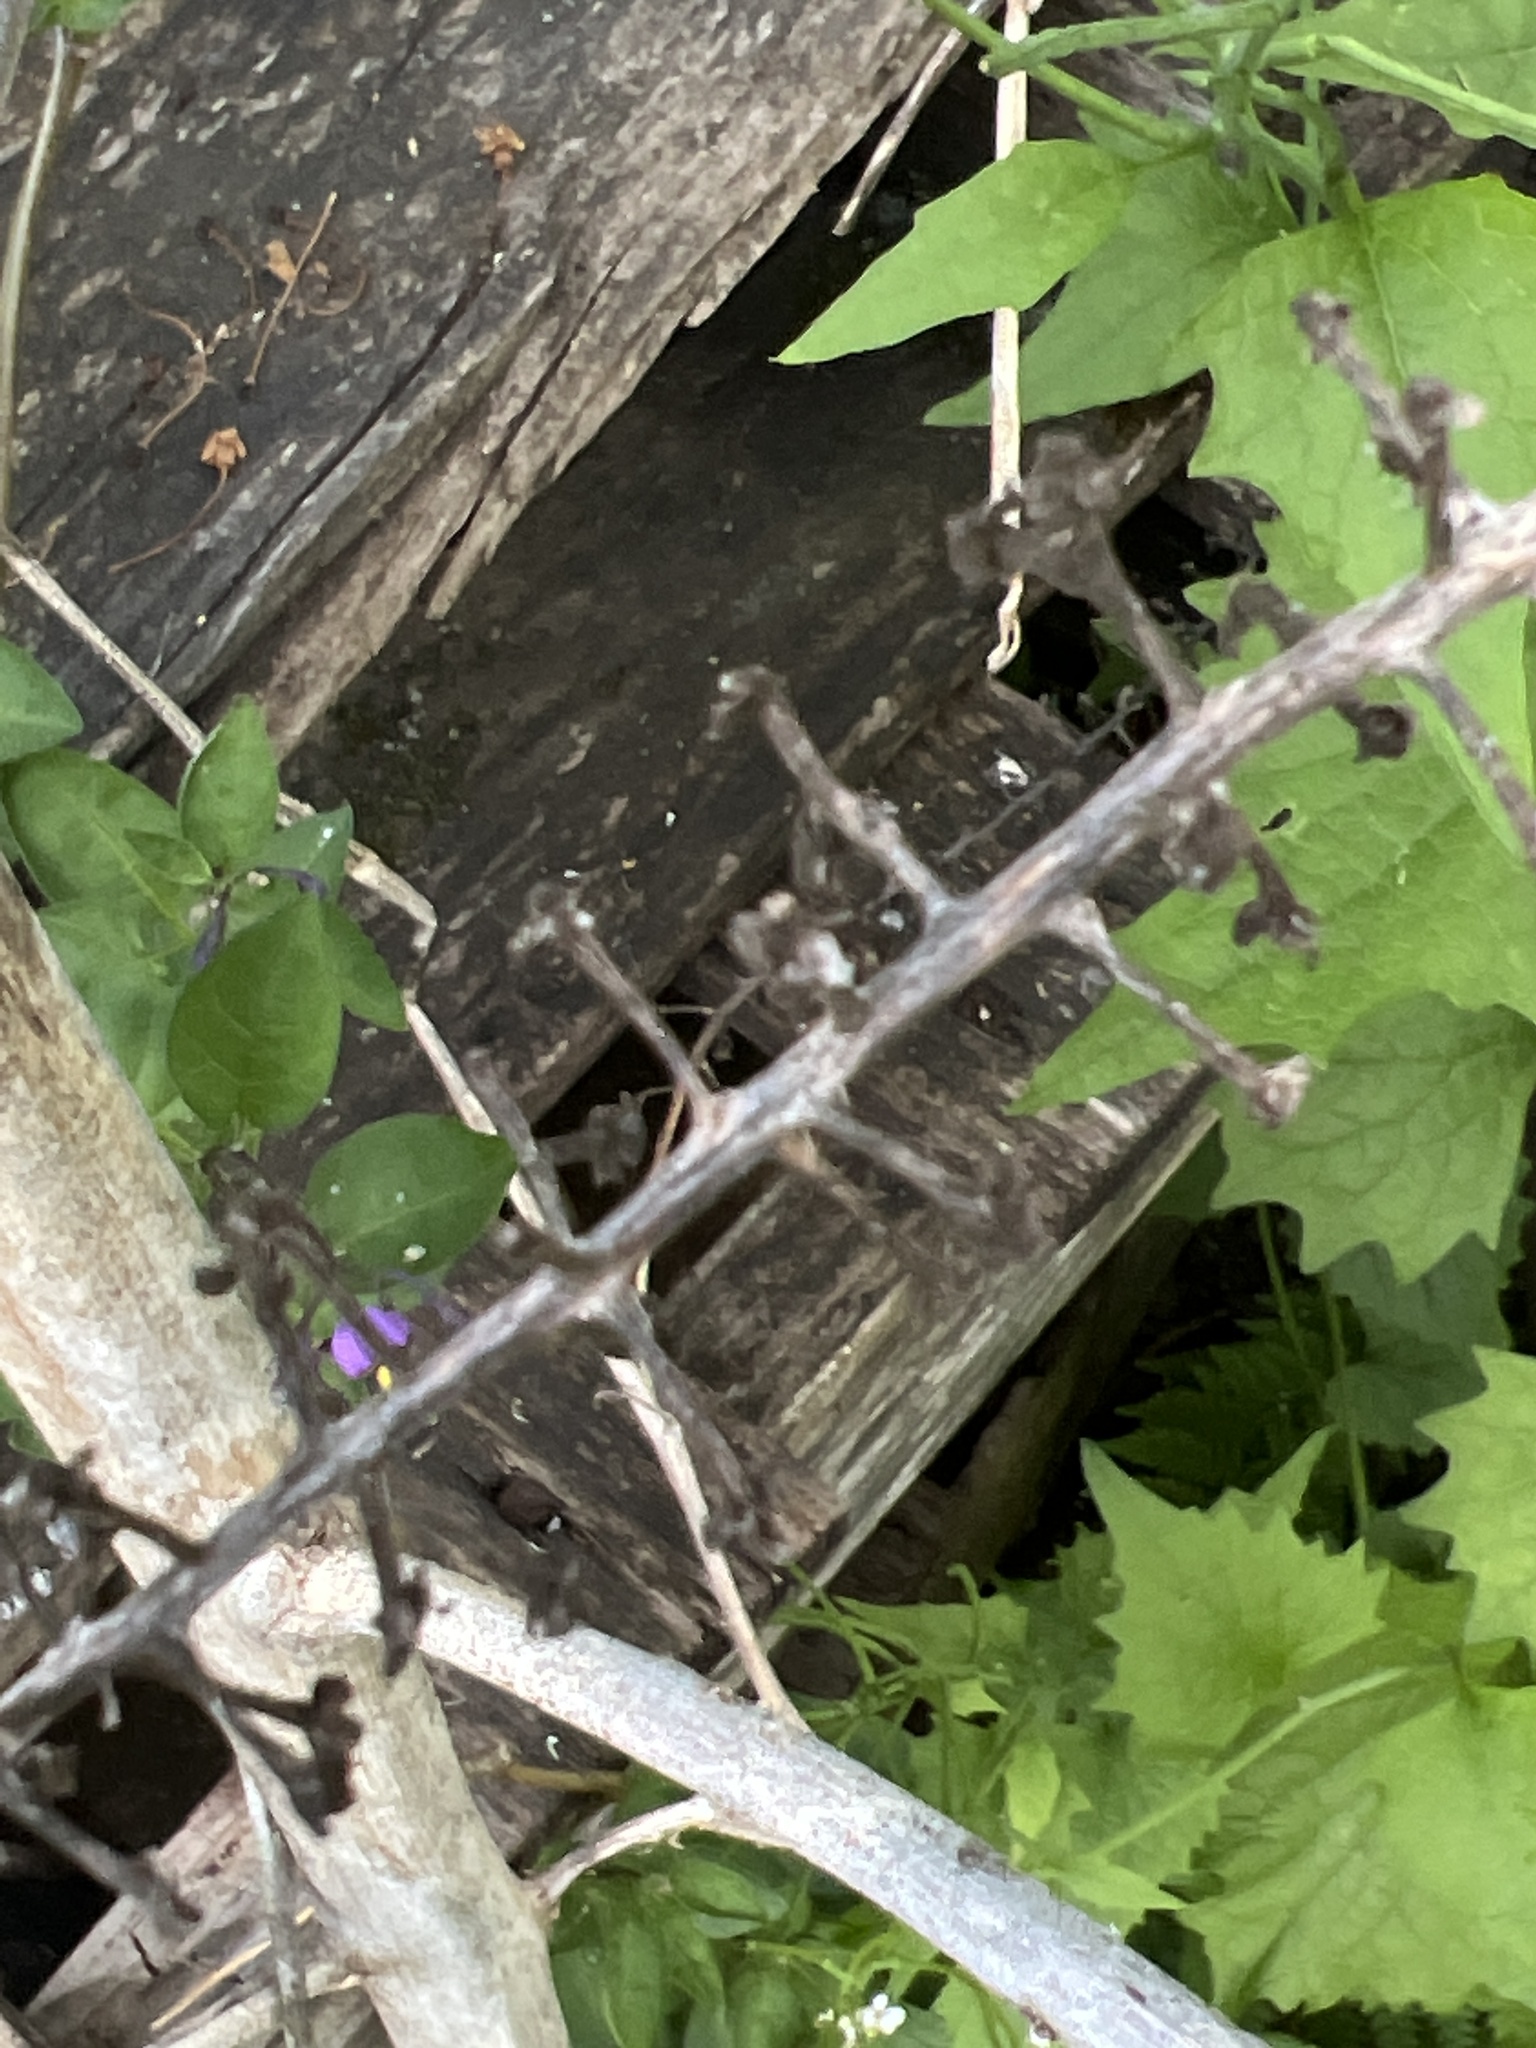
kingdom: Plantae
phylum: Tracheophyta
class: Magnoliopsida
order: Caryophyllales
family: Phytolaccaceae
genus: Phytolacca
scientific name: Phytolacca americana
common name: American pokeweed
